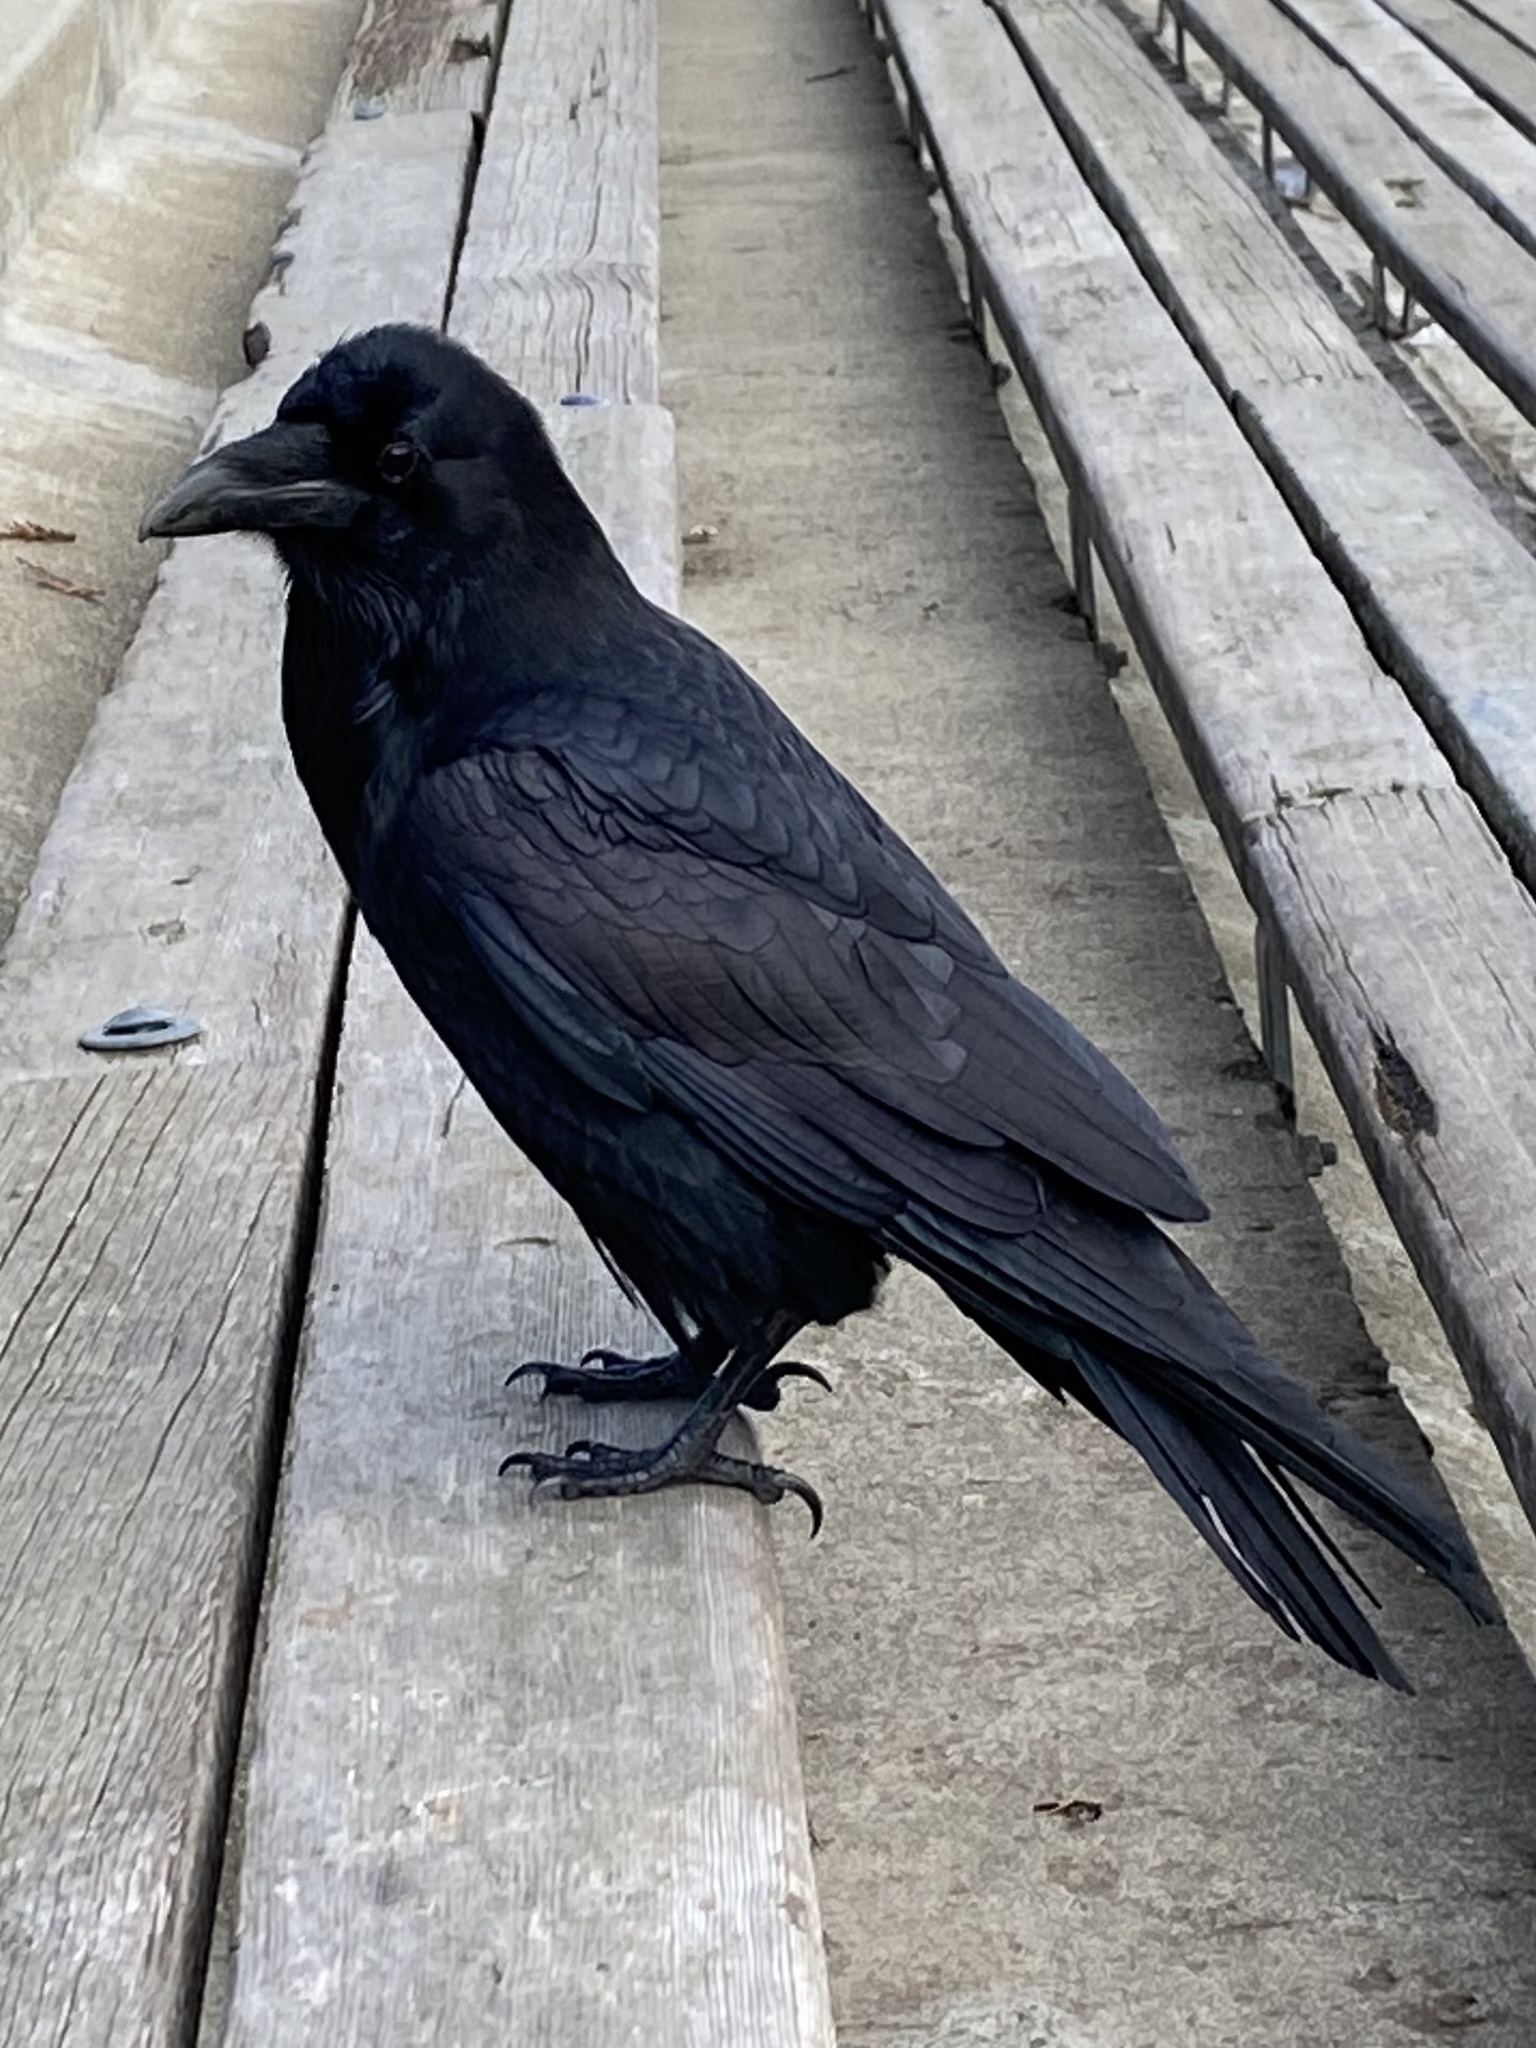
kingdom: Animalia
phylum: Chordata
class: Aves
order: Passeriformes
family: Corvidae
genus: Corvus
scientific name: Corvus corax
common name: Common raven
